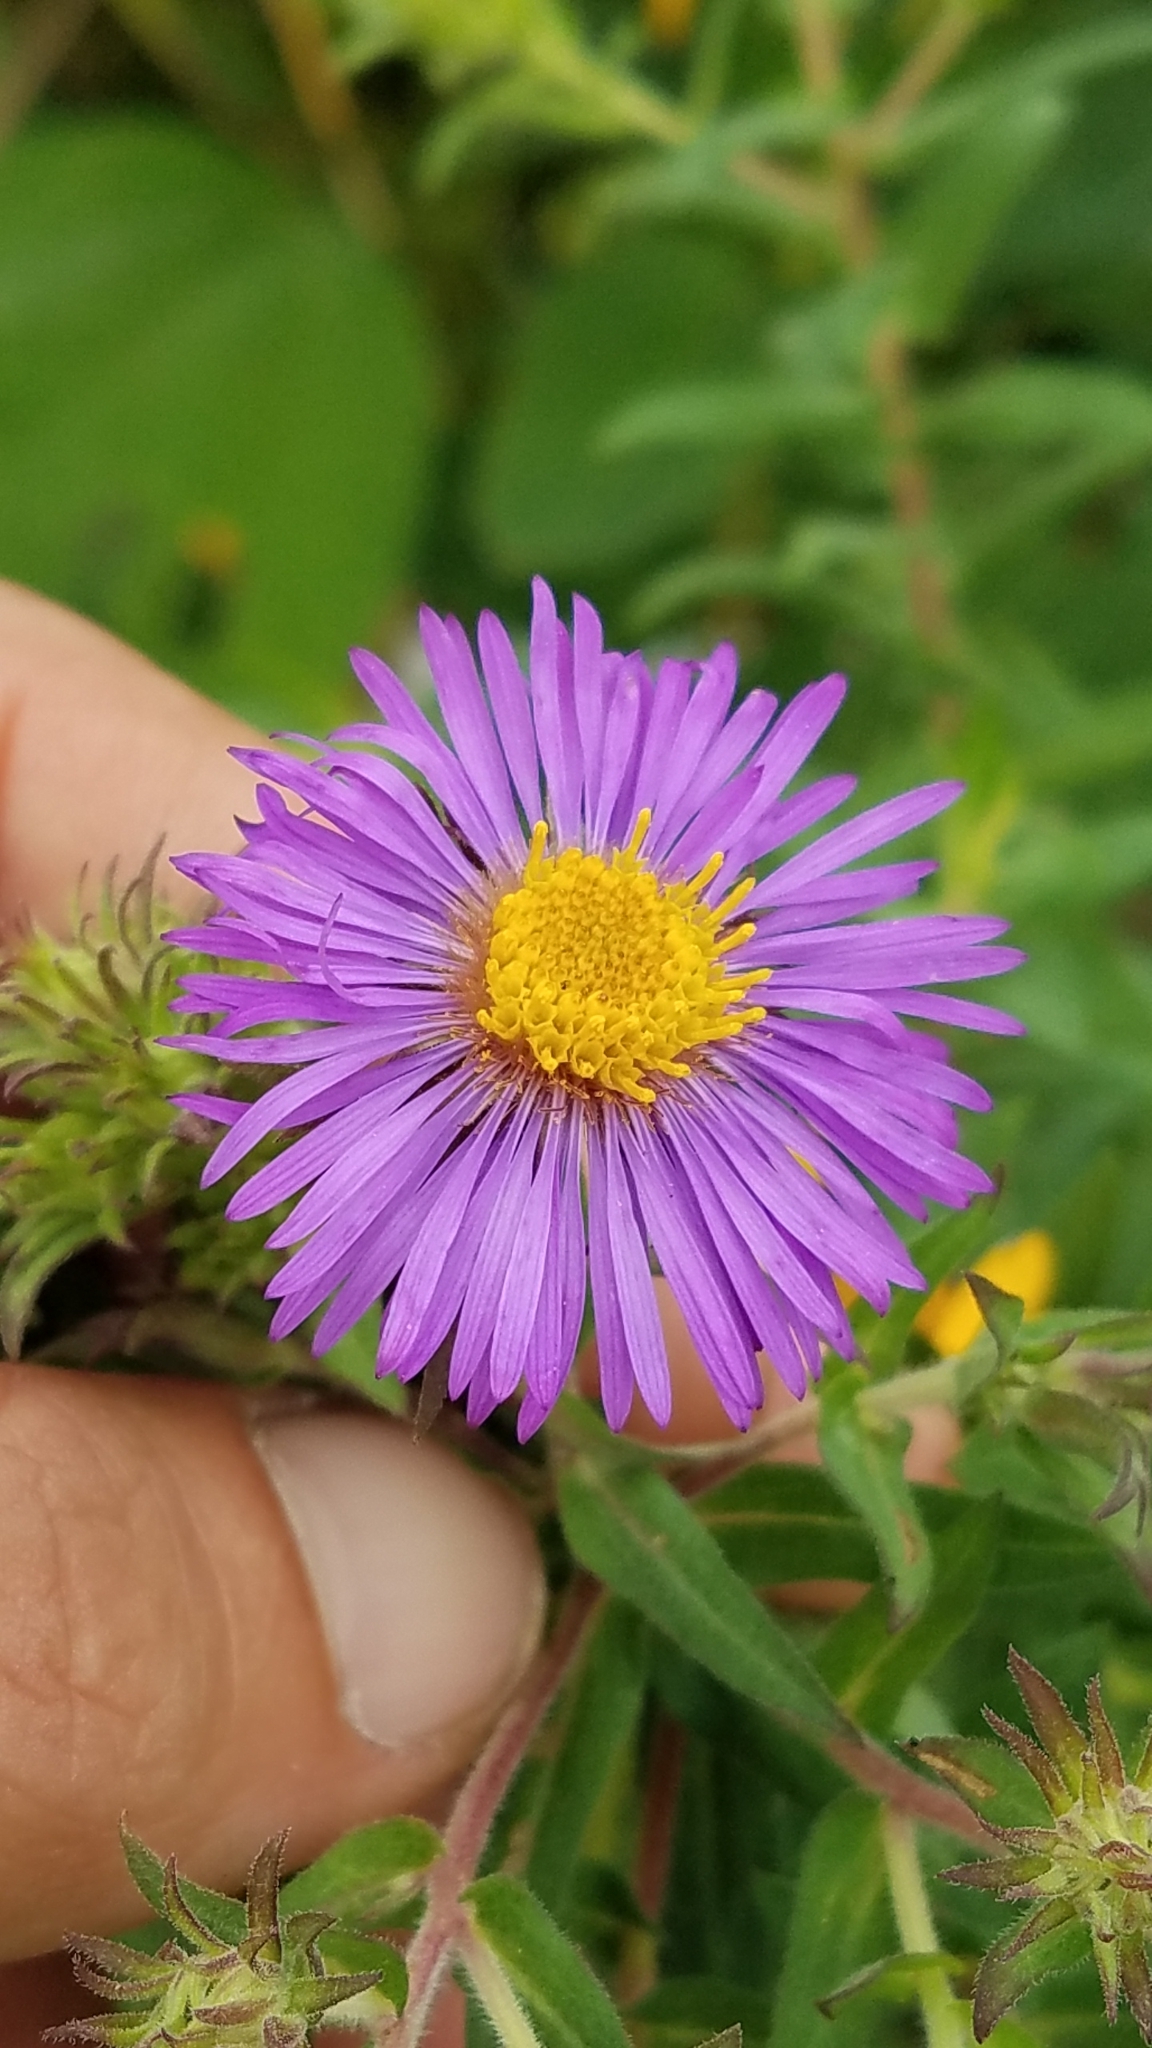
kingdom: Plantae
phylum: Tracheophyta
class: Magnoliopsida
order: Asterales
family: Asteraceae
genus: Symphyotrichum
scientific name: Symphyotrichum novae-angliae
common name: Michaelmas daisy
